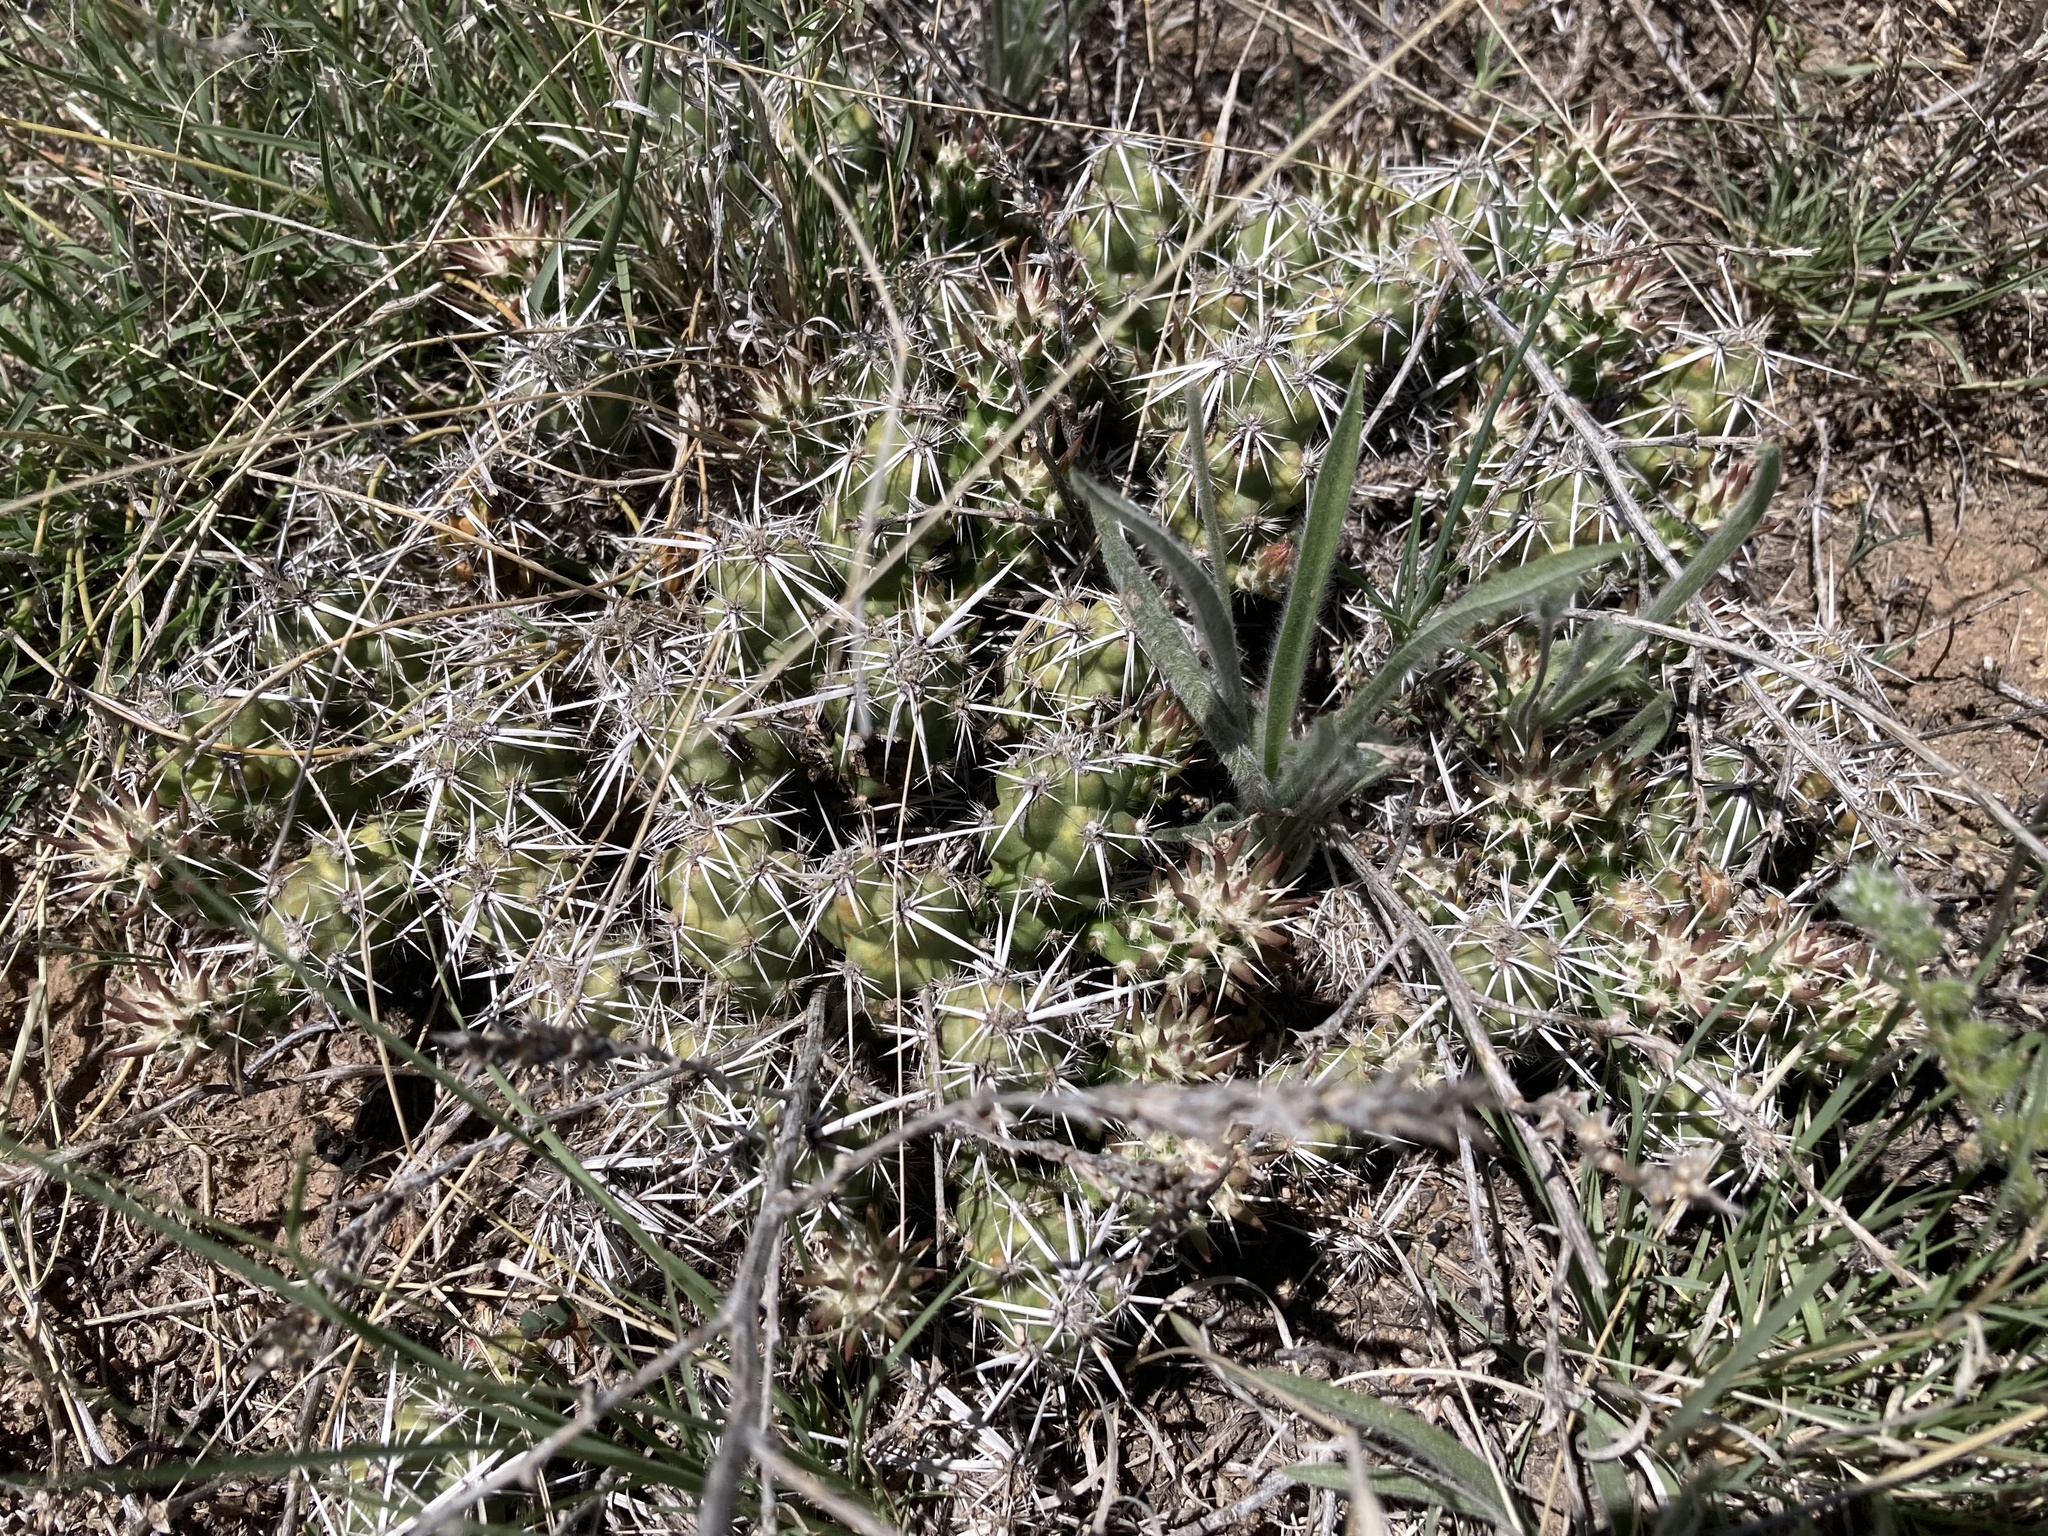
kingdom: Plantae
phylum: Tracheophyta
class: Magnoliopsida
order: Caryophyllales
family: Cactaceae
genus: Grusonia
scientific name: Grusonia clavata
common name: Club cholla
